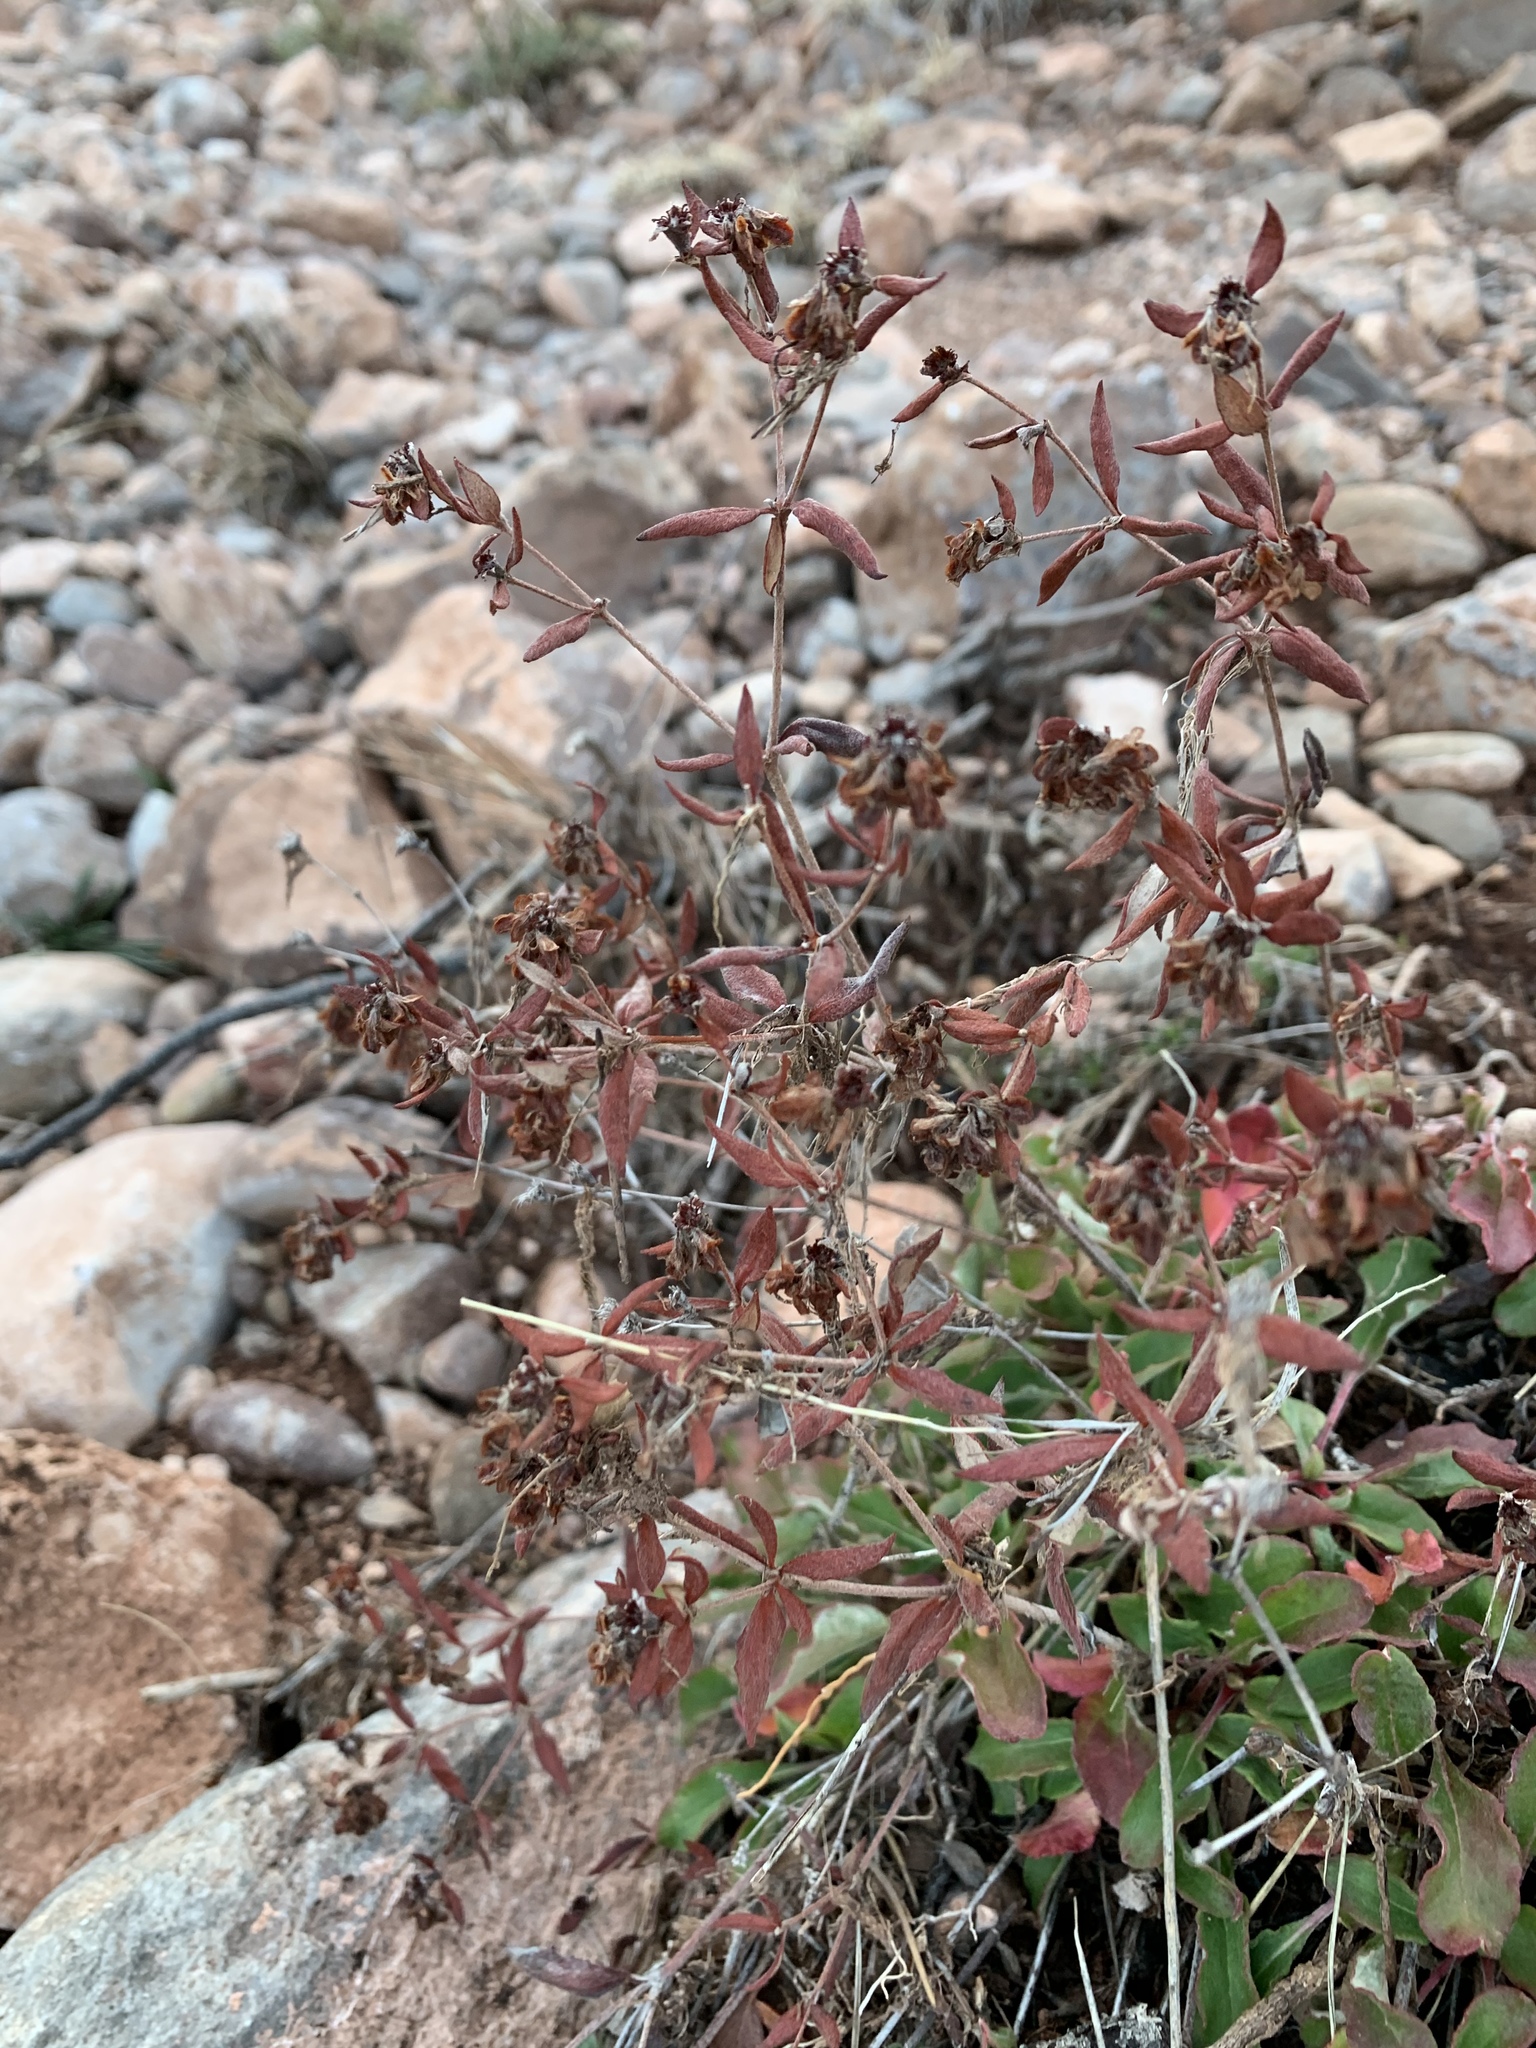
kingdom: Plantae
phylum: Tracheophyta
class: Magnoliopsida
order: Caryophyllales
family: Polygonaceae
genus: Eriogonum
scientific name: Eriogonum wootonii
